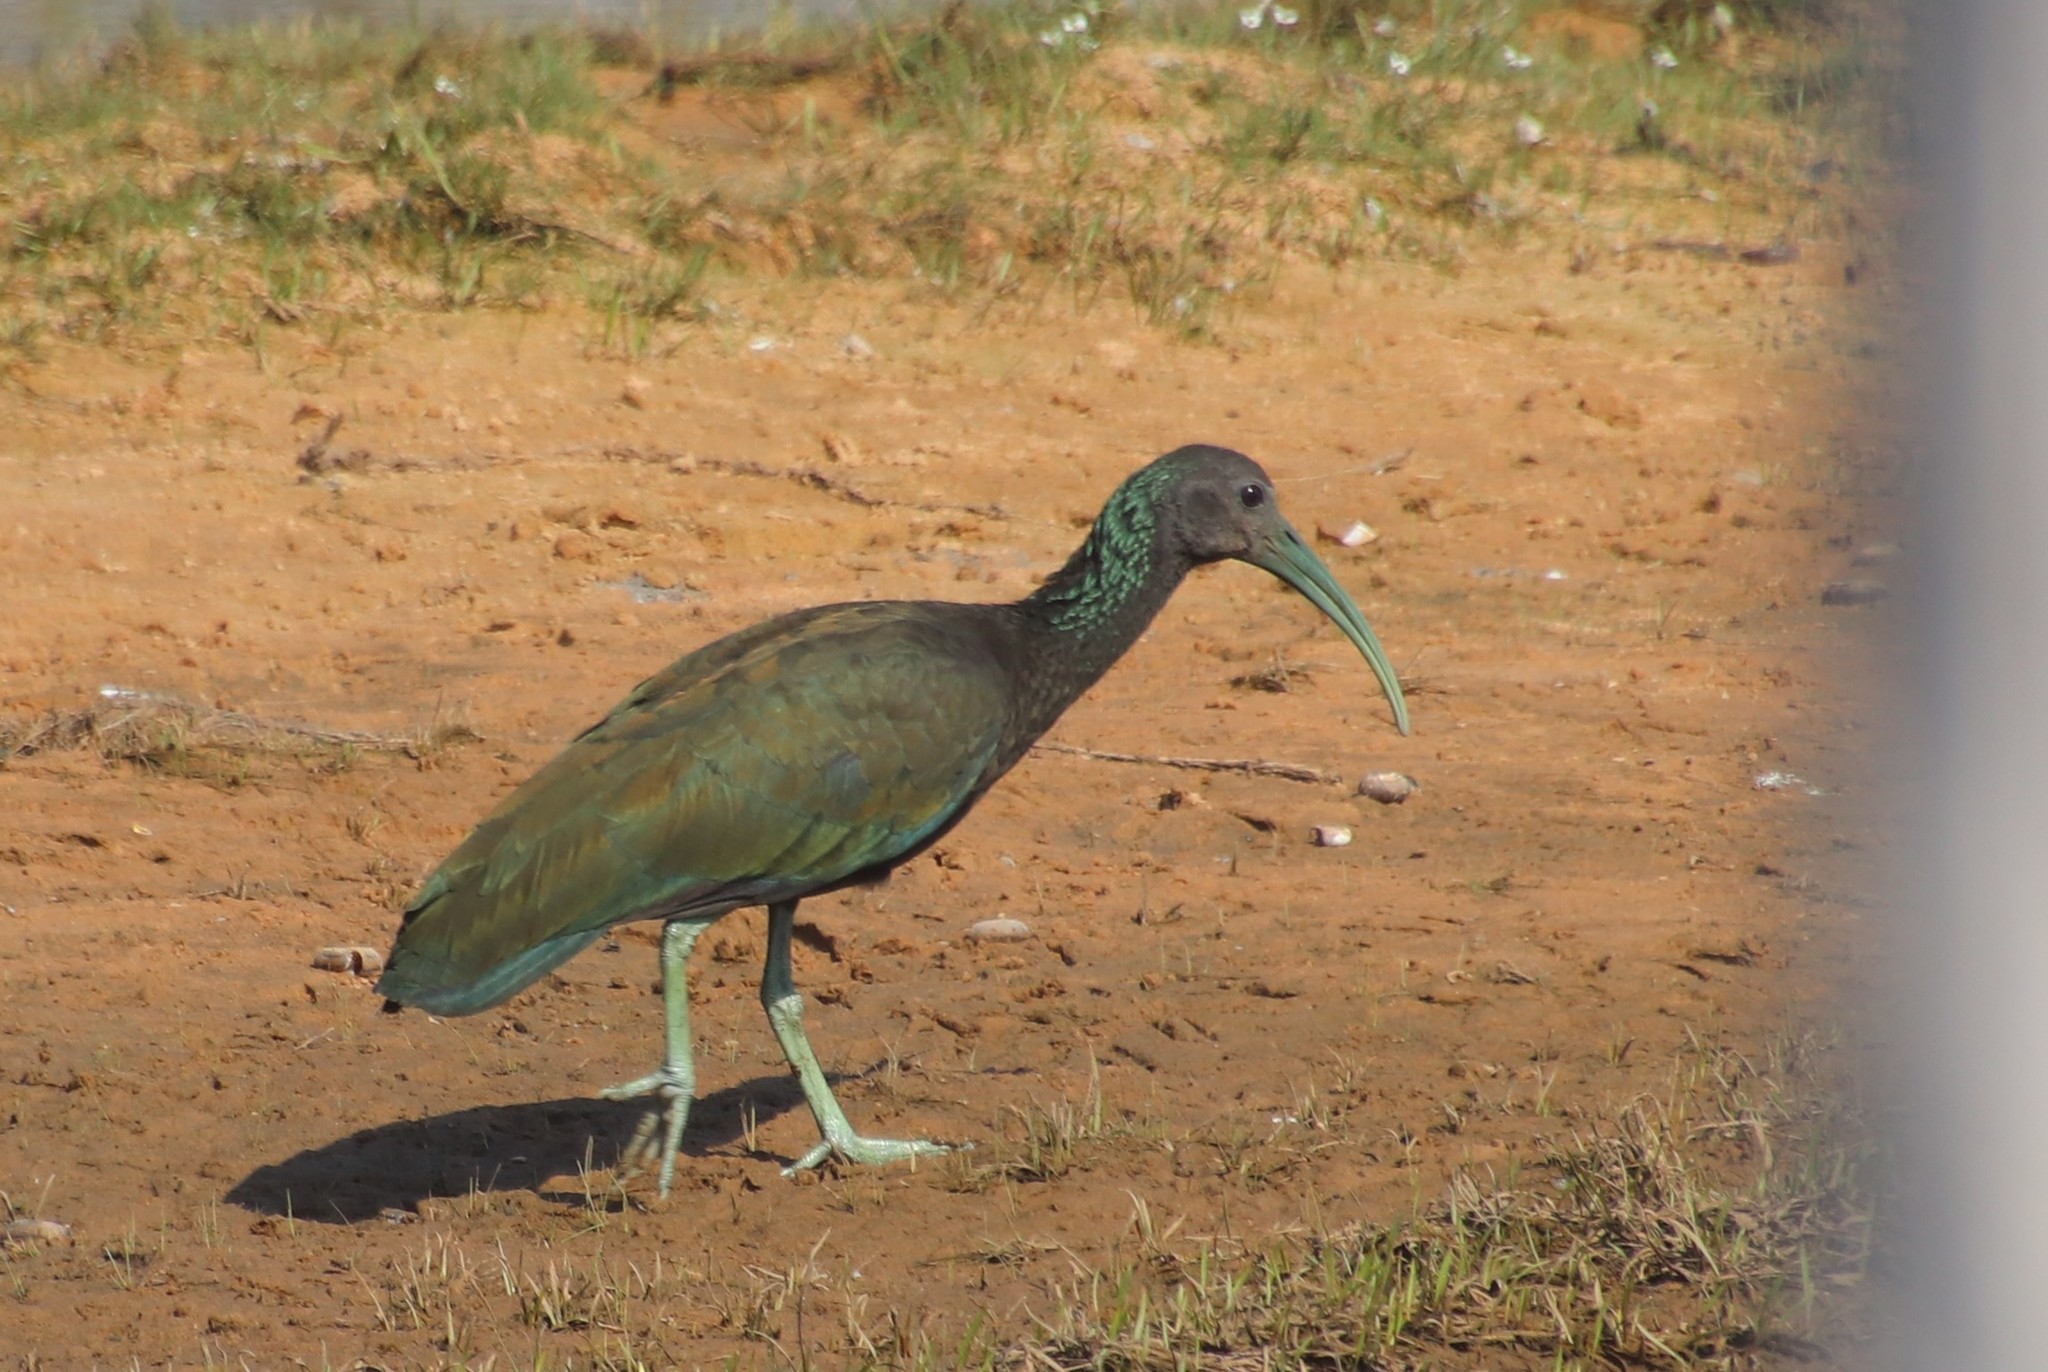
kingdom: Animalia
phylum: Chordata
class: Aves
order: Pelecaniformes
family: Threskiornithidae
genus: Mesembrinibis
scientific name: Mesembrinibis cayennensis
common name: Green ibis
